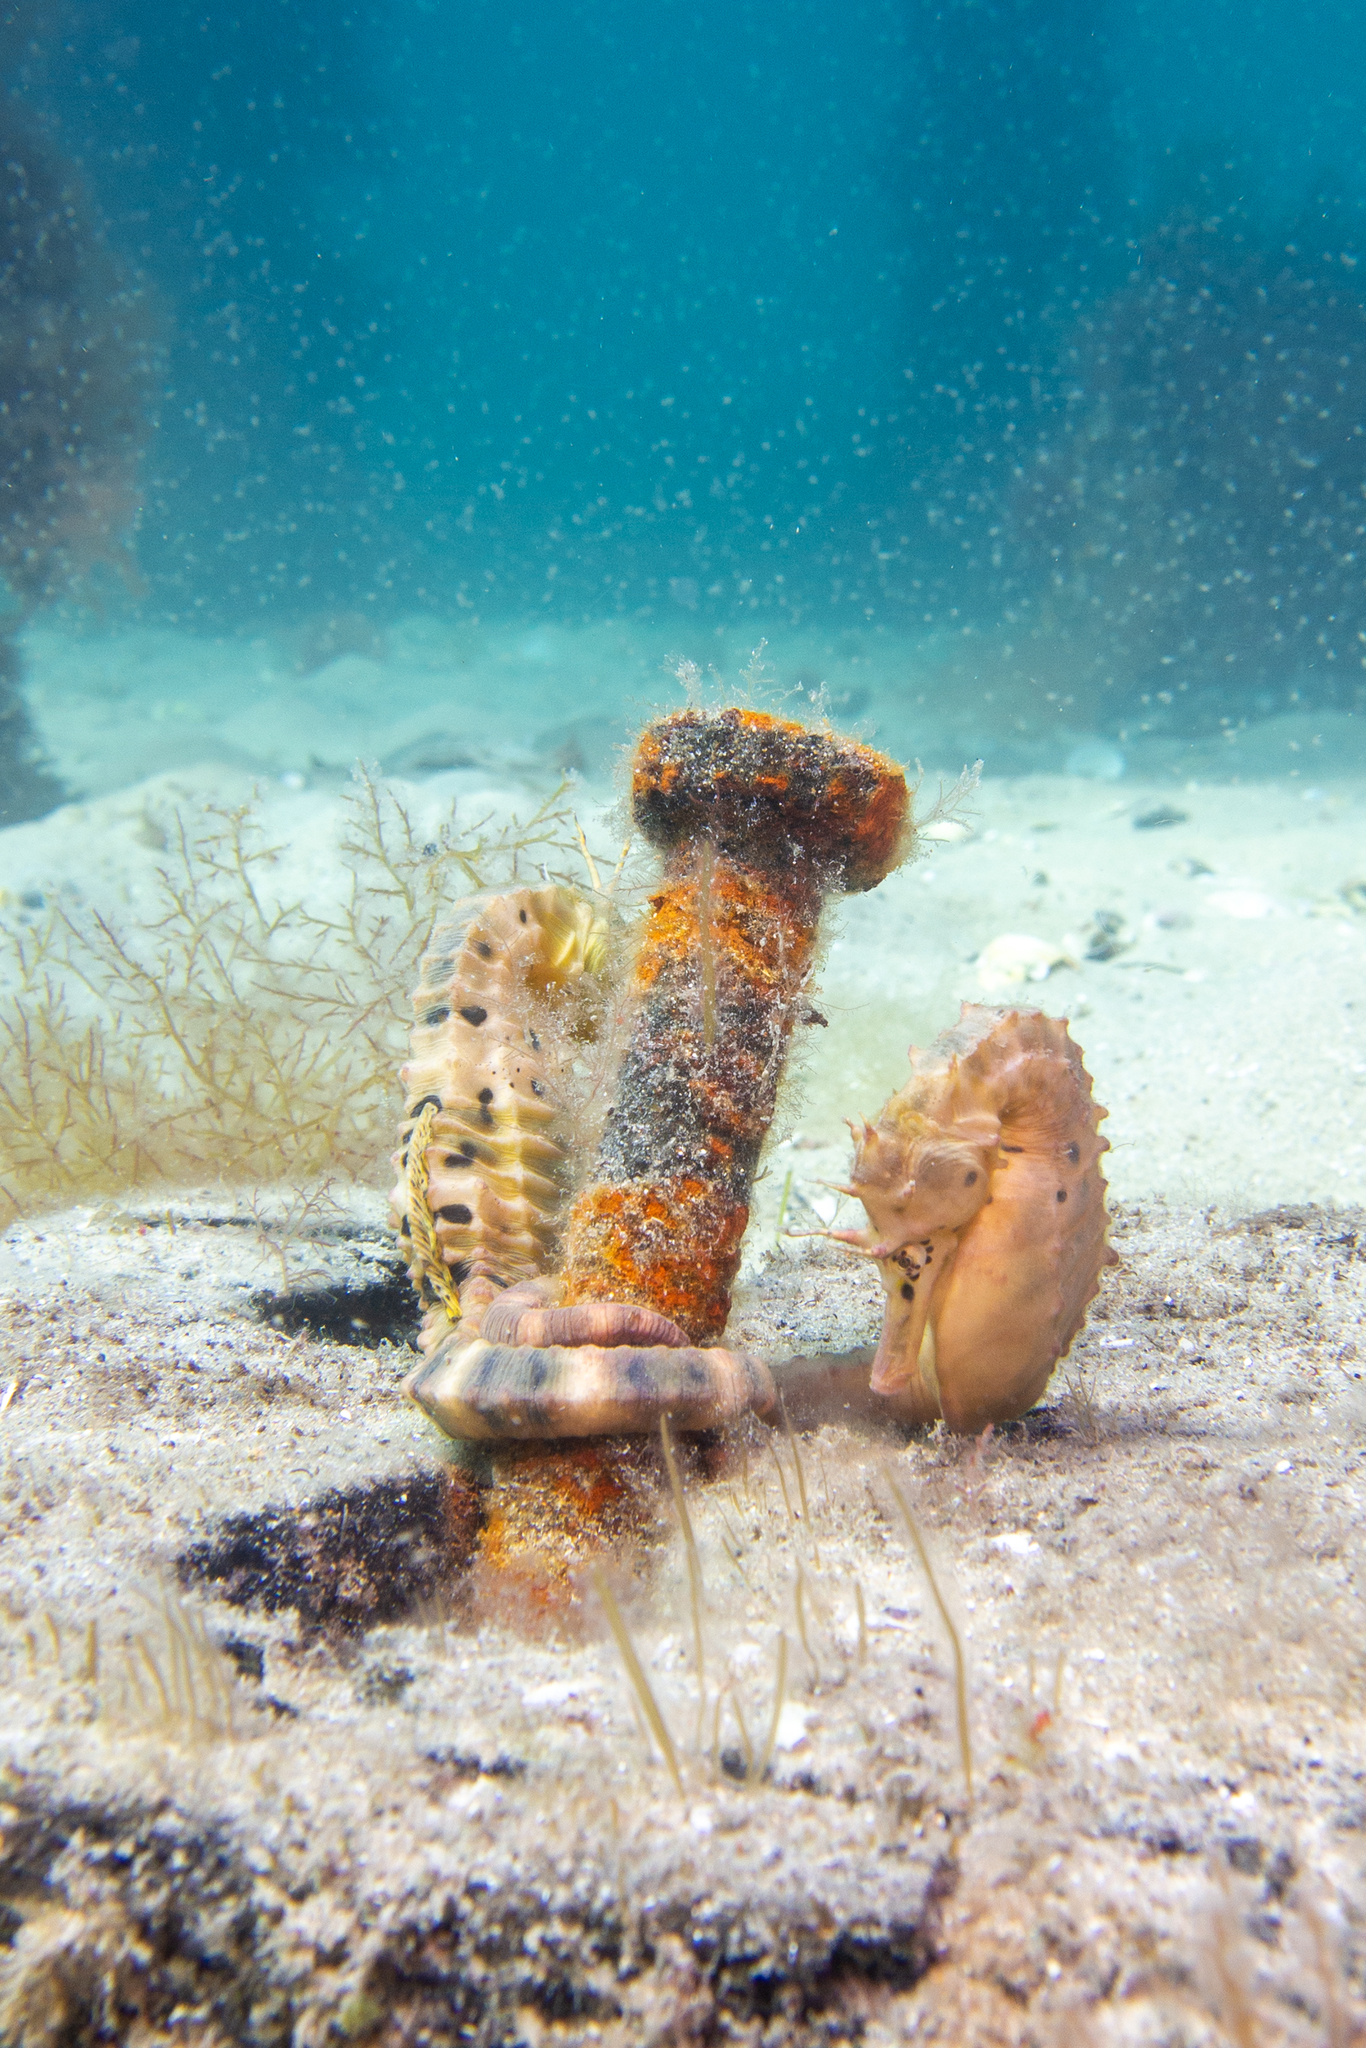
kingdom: Animalia
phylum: Chordata
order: Syngnathiformes
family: Syngnathidae
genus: Hippocampus
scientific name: Hippocampus abdominalis
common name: Big-belly seahorse
